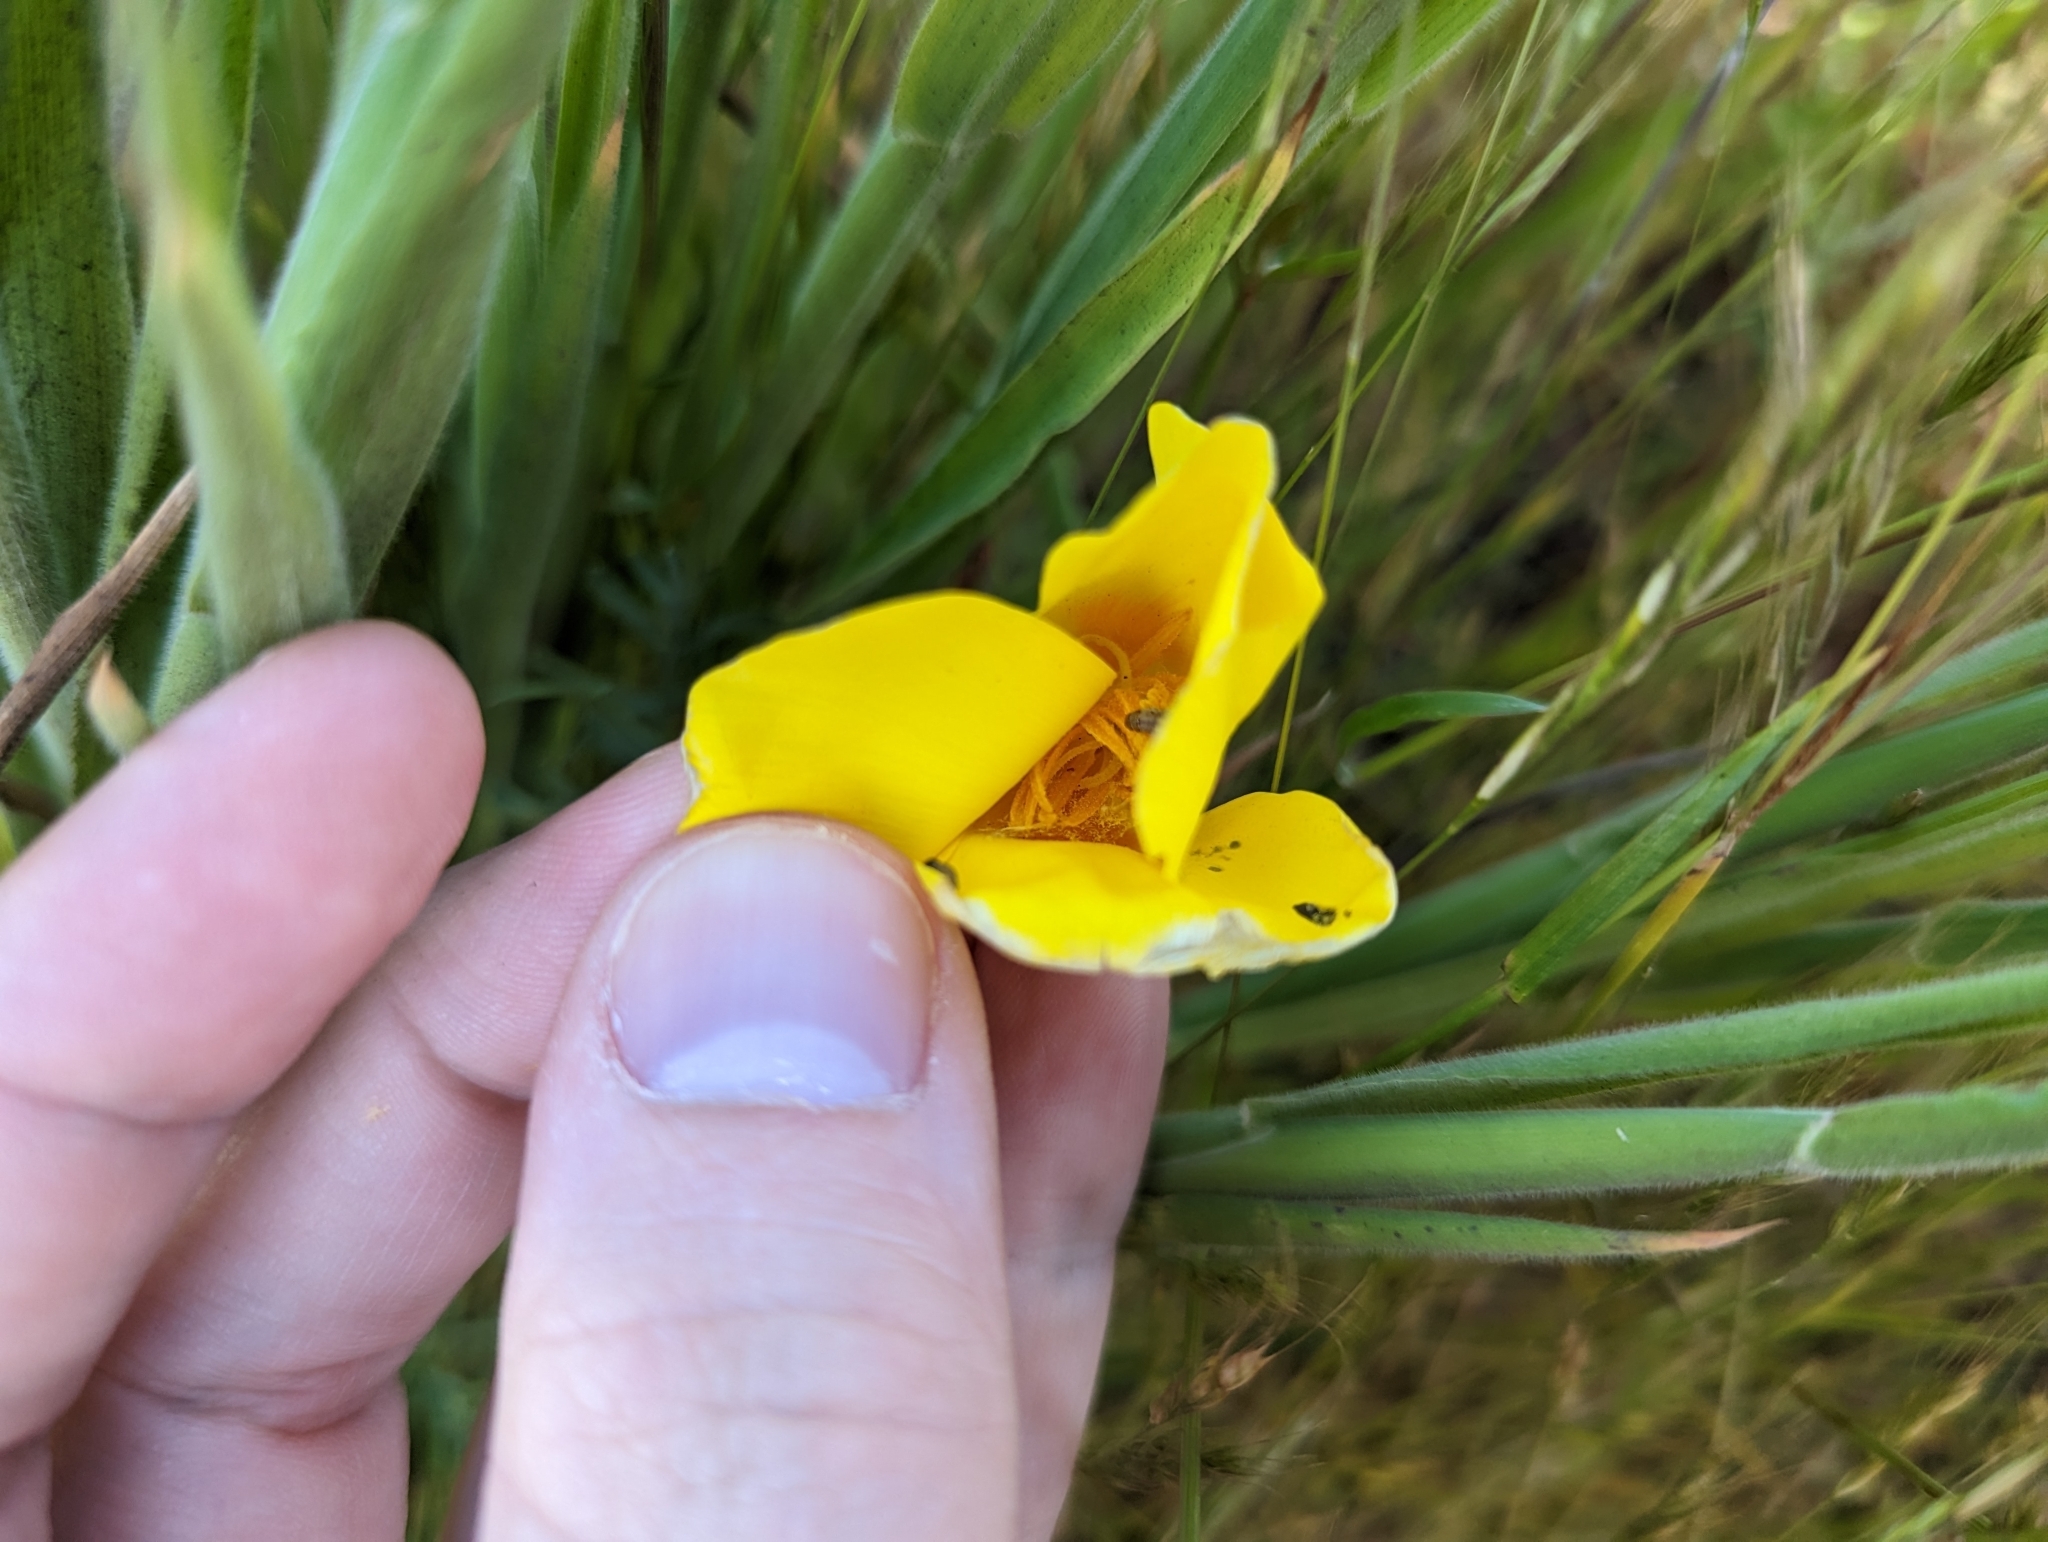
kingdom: Plantae
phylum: Tracheophyta
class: Liliopsida
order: Liliales
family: Liliaceae
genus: Calochortus
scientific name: Calochortus luteus
